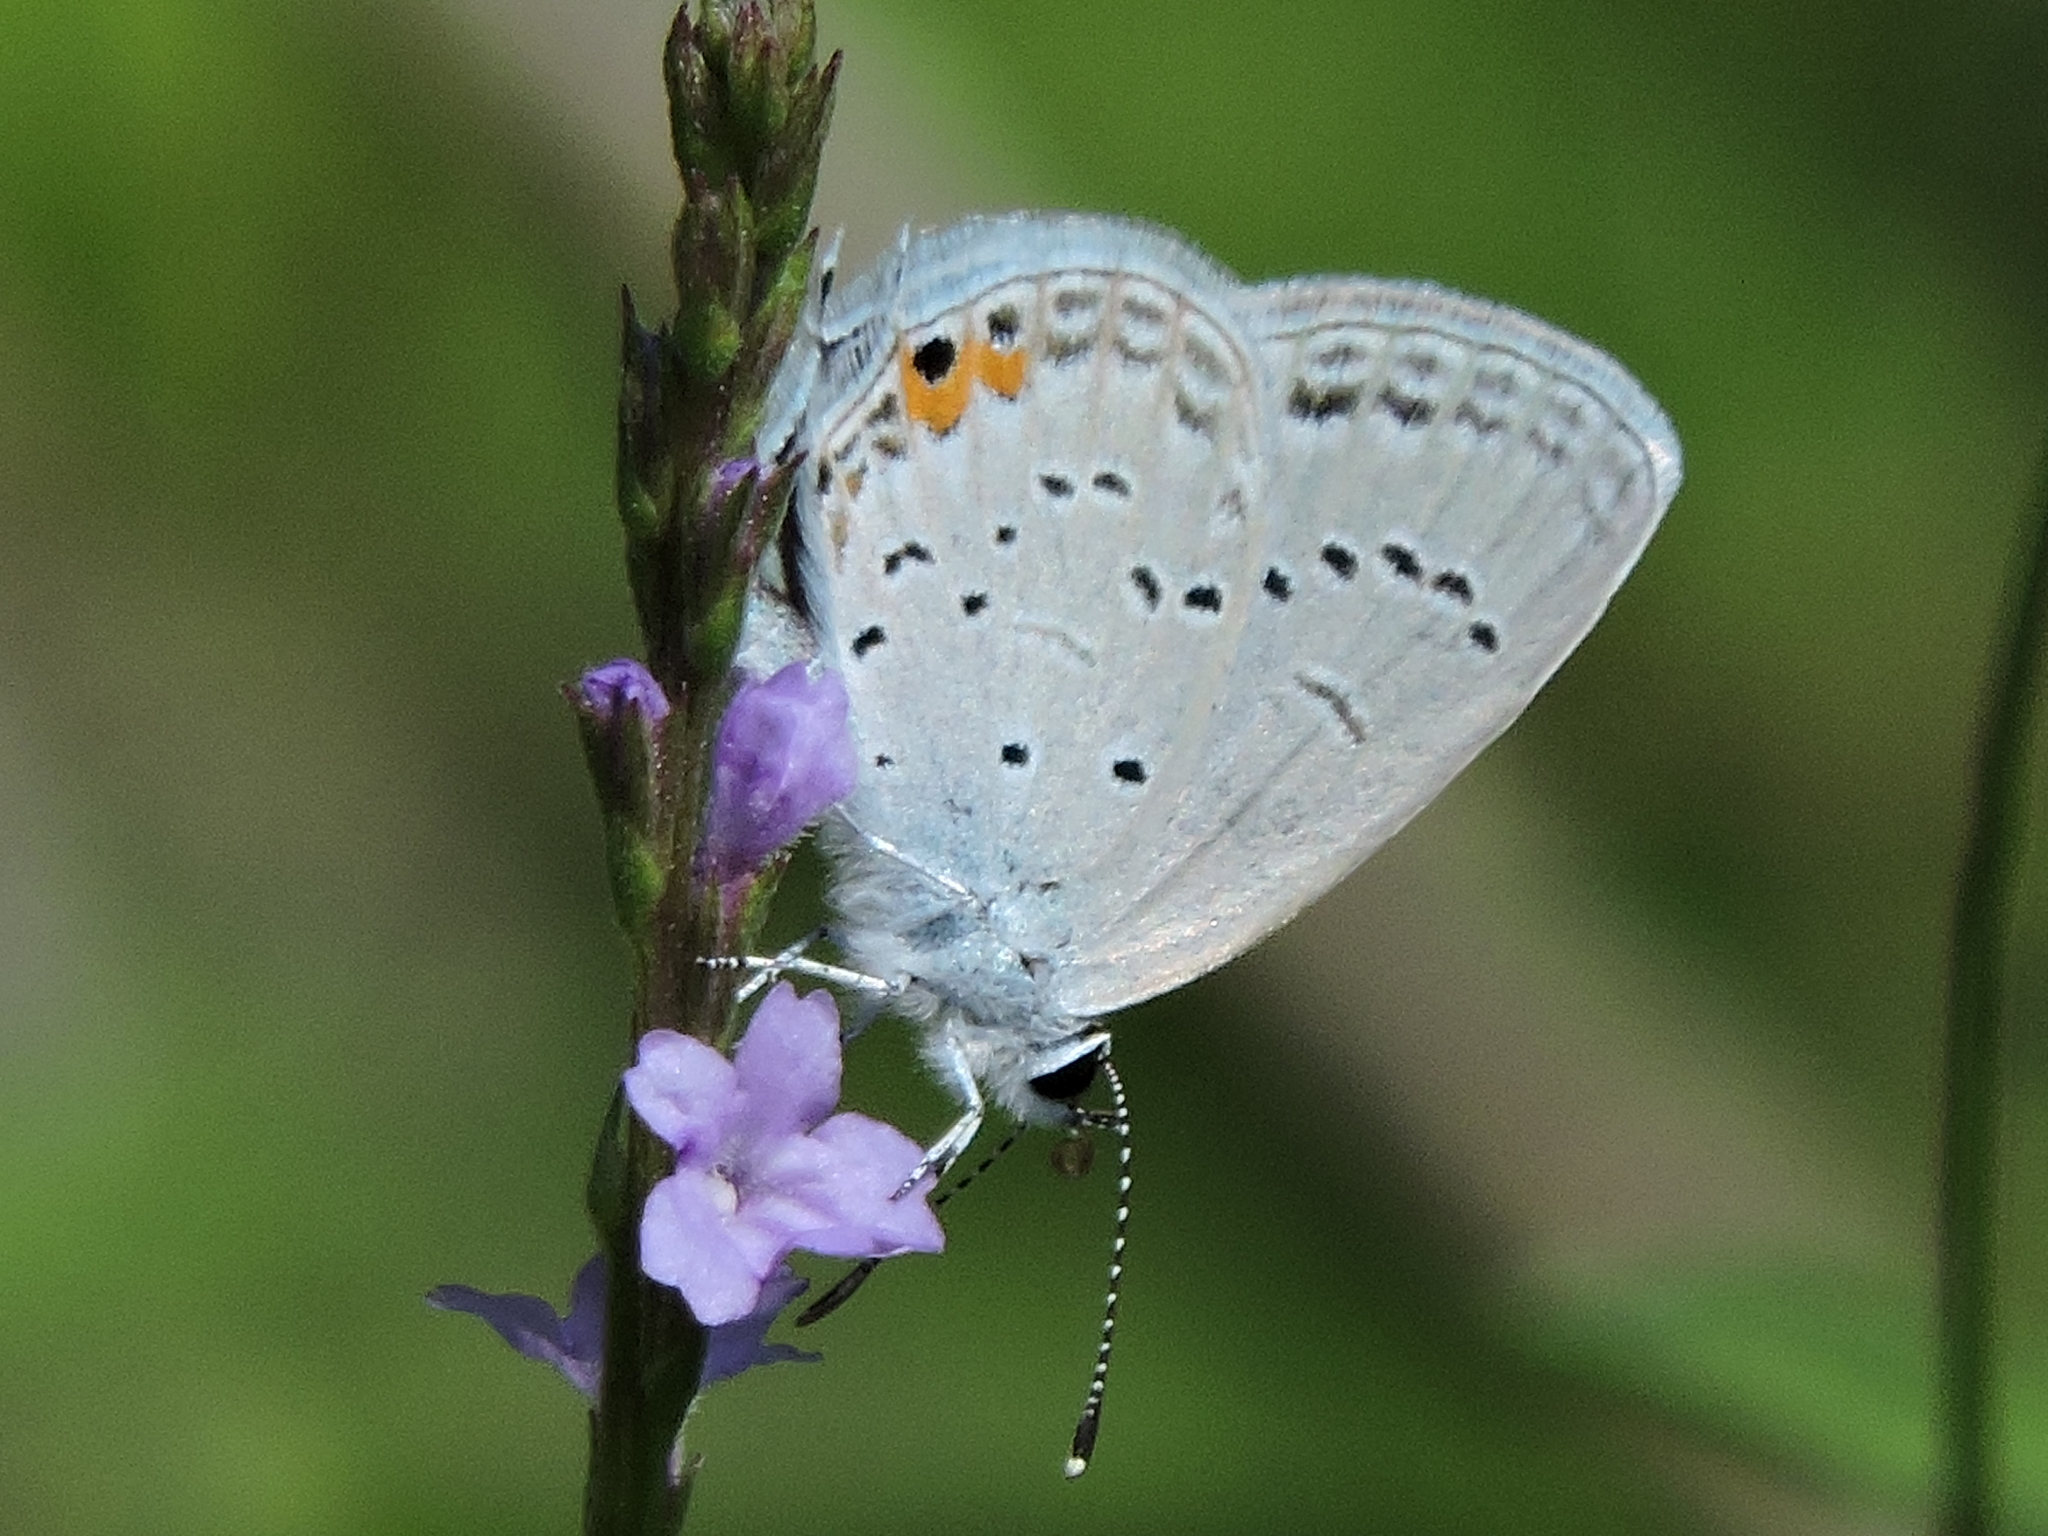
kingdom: Animalia
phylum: Arthropoda
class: Insecta
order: Lepidoptera
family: Lycaenidae
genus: Elkalyce
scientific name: Elkalyce comyntas
